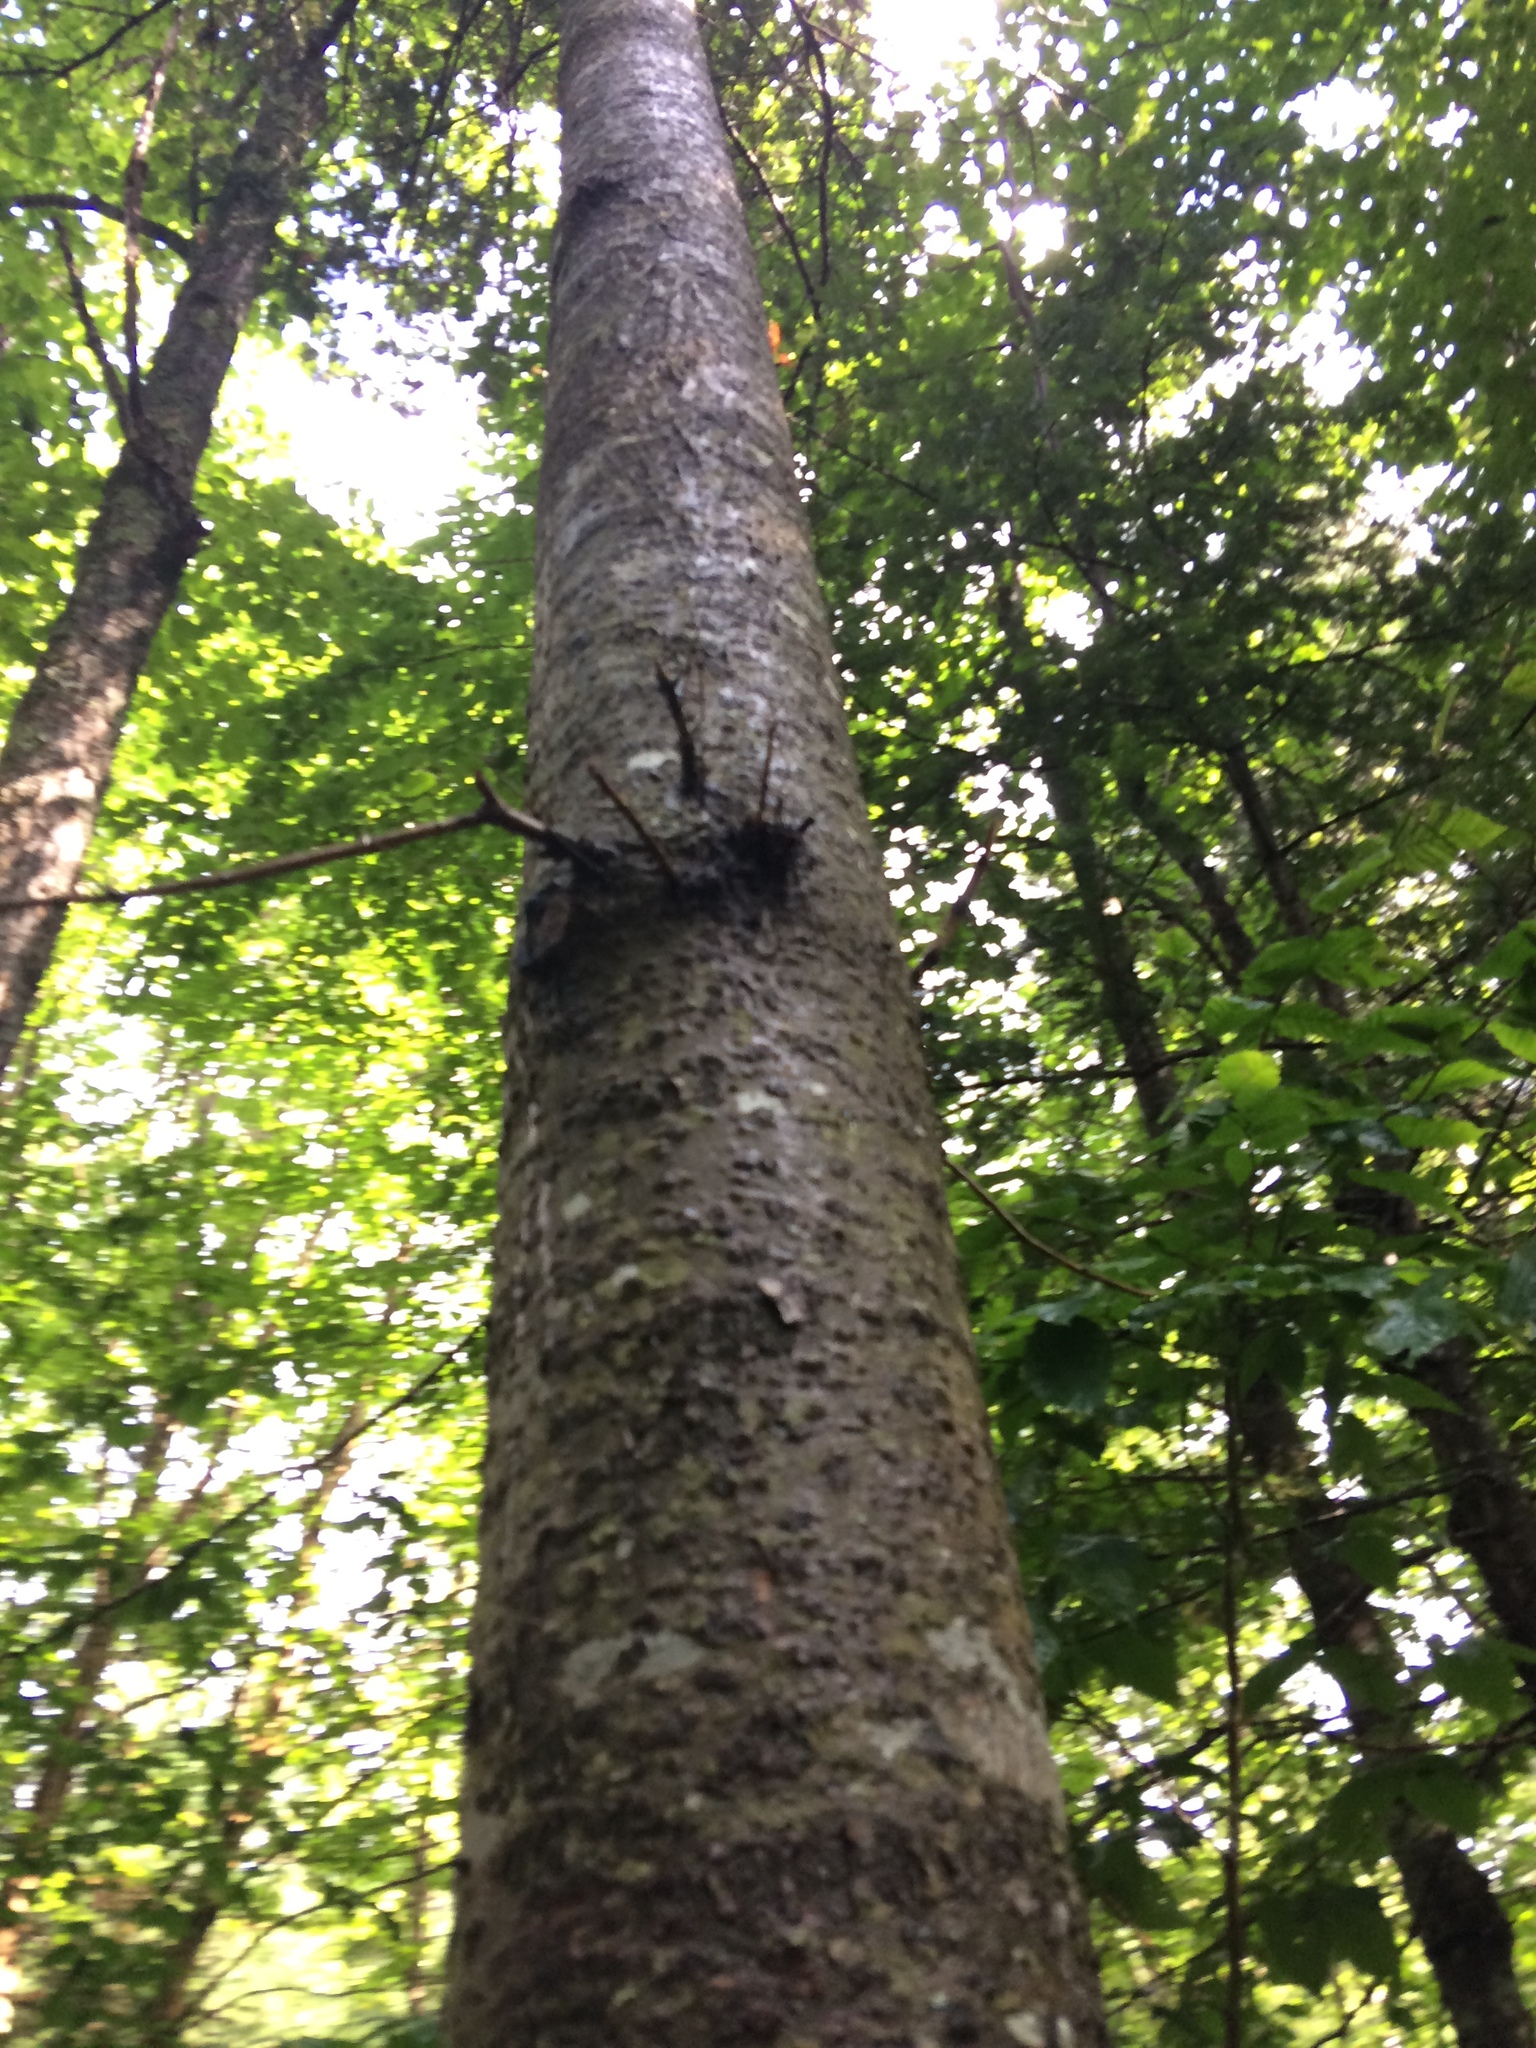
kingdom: Plantae
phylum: Tracheophyta
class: Pinopsida
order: Pinales
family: Pinaceae
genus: Abies
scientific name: Abies balsamea
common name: Balsam fir
